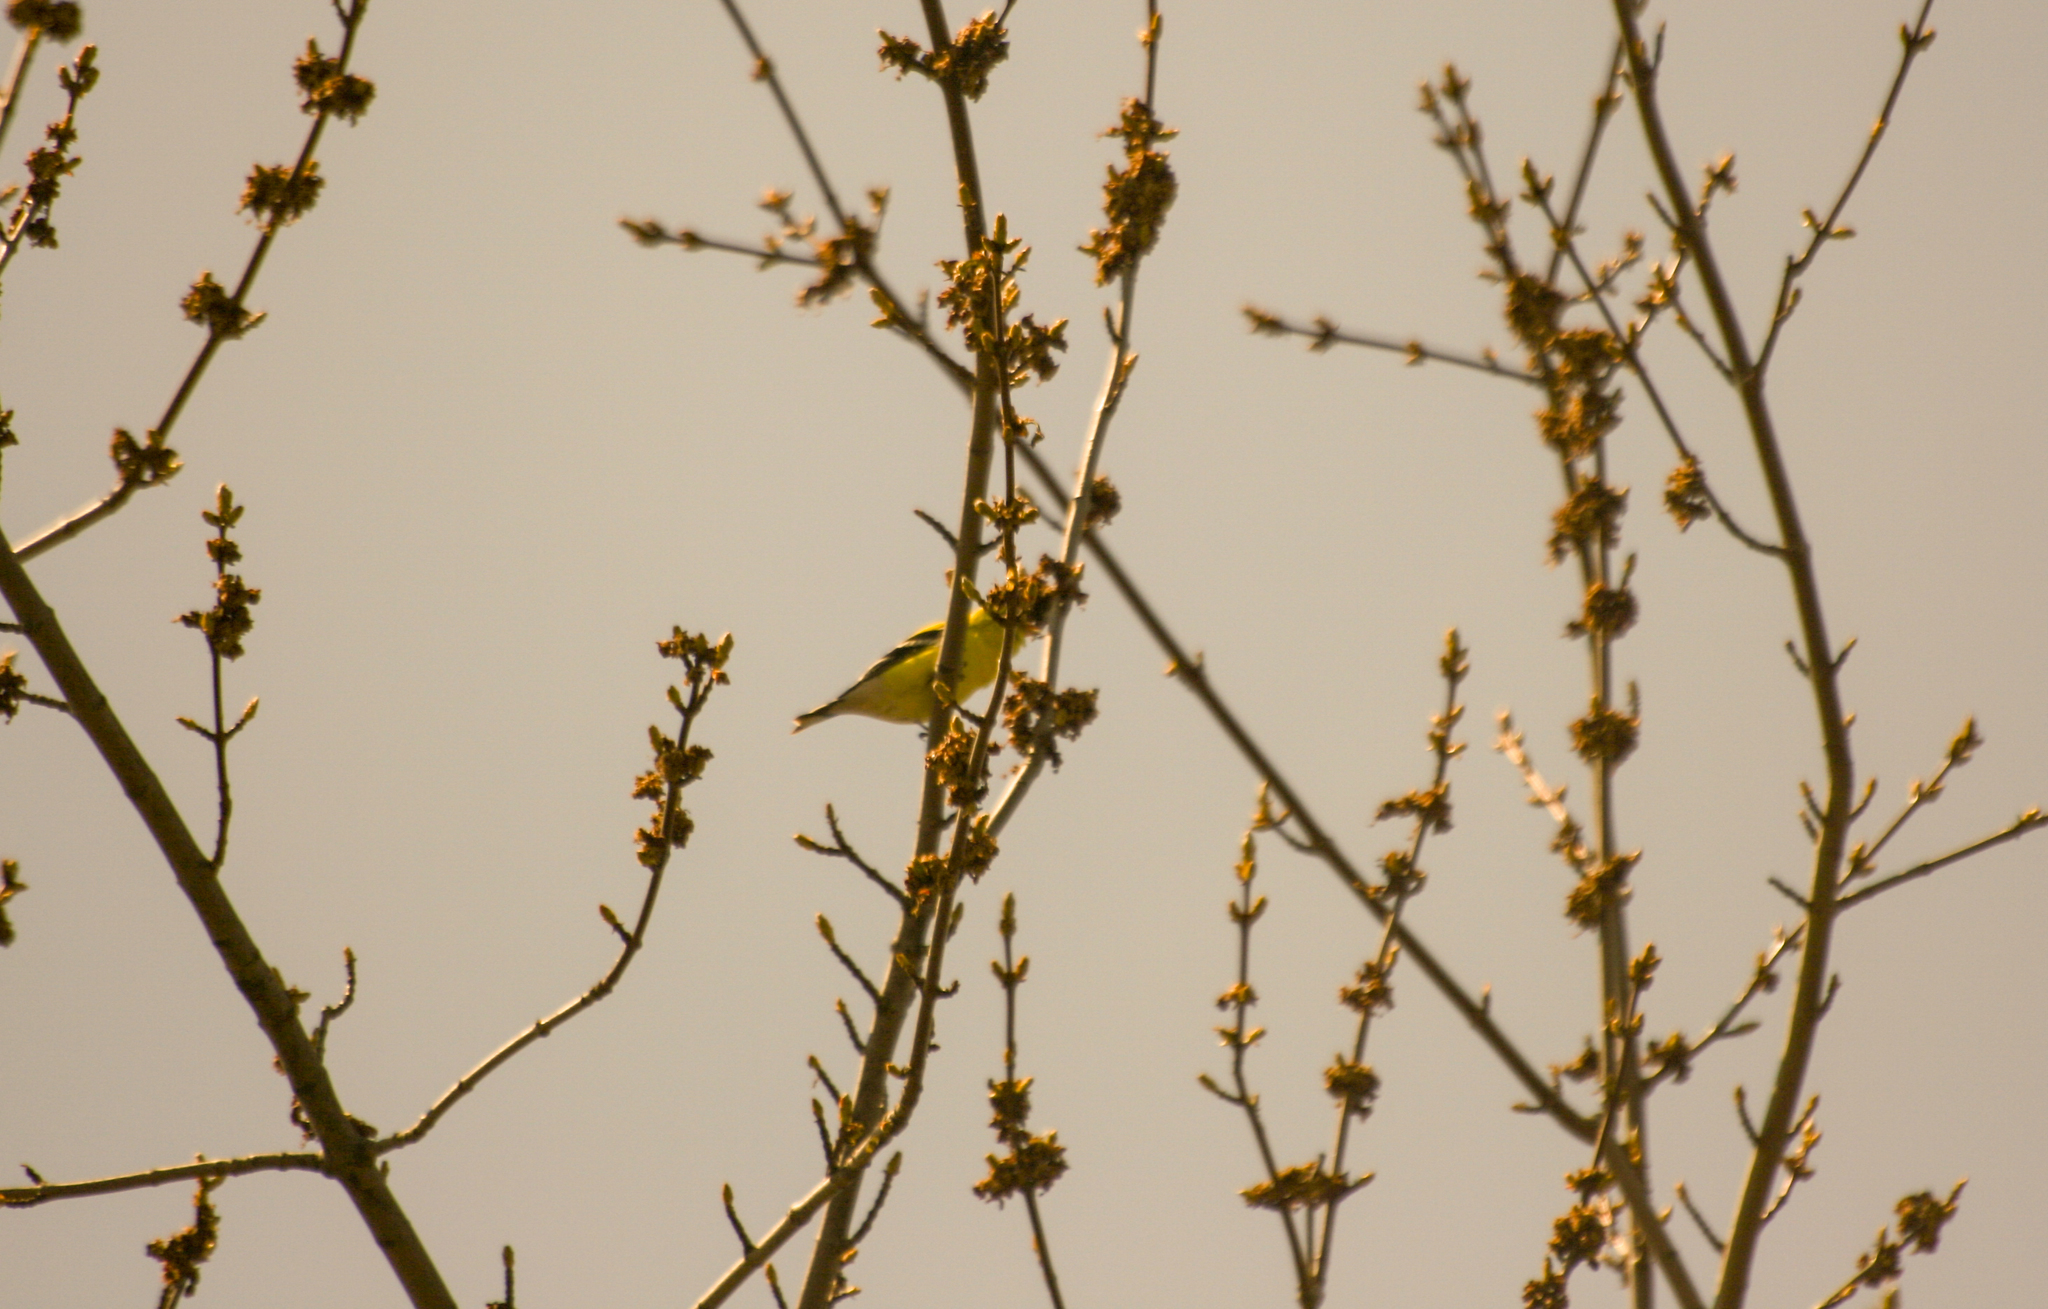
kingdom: Animalia
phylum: Chordata
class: Aves
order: Passeriformes
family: Fringillidae
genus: Spinus
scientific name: Spinus tristis
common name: American goldfinch
